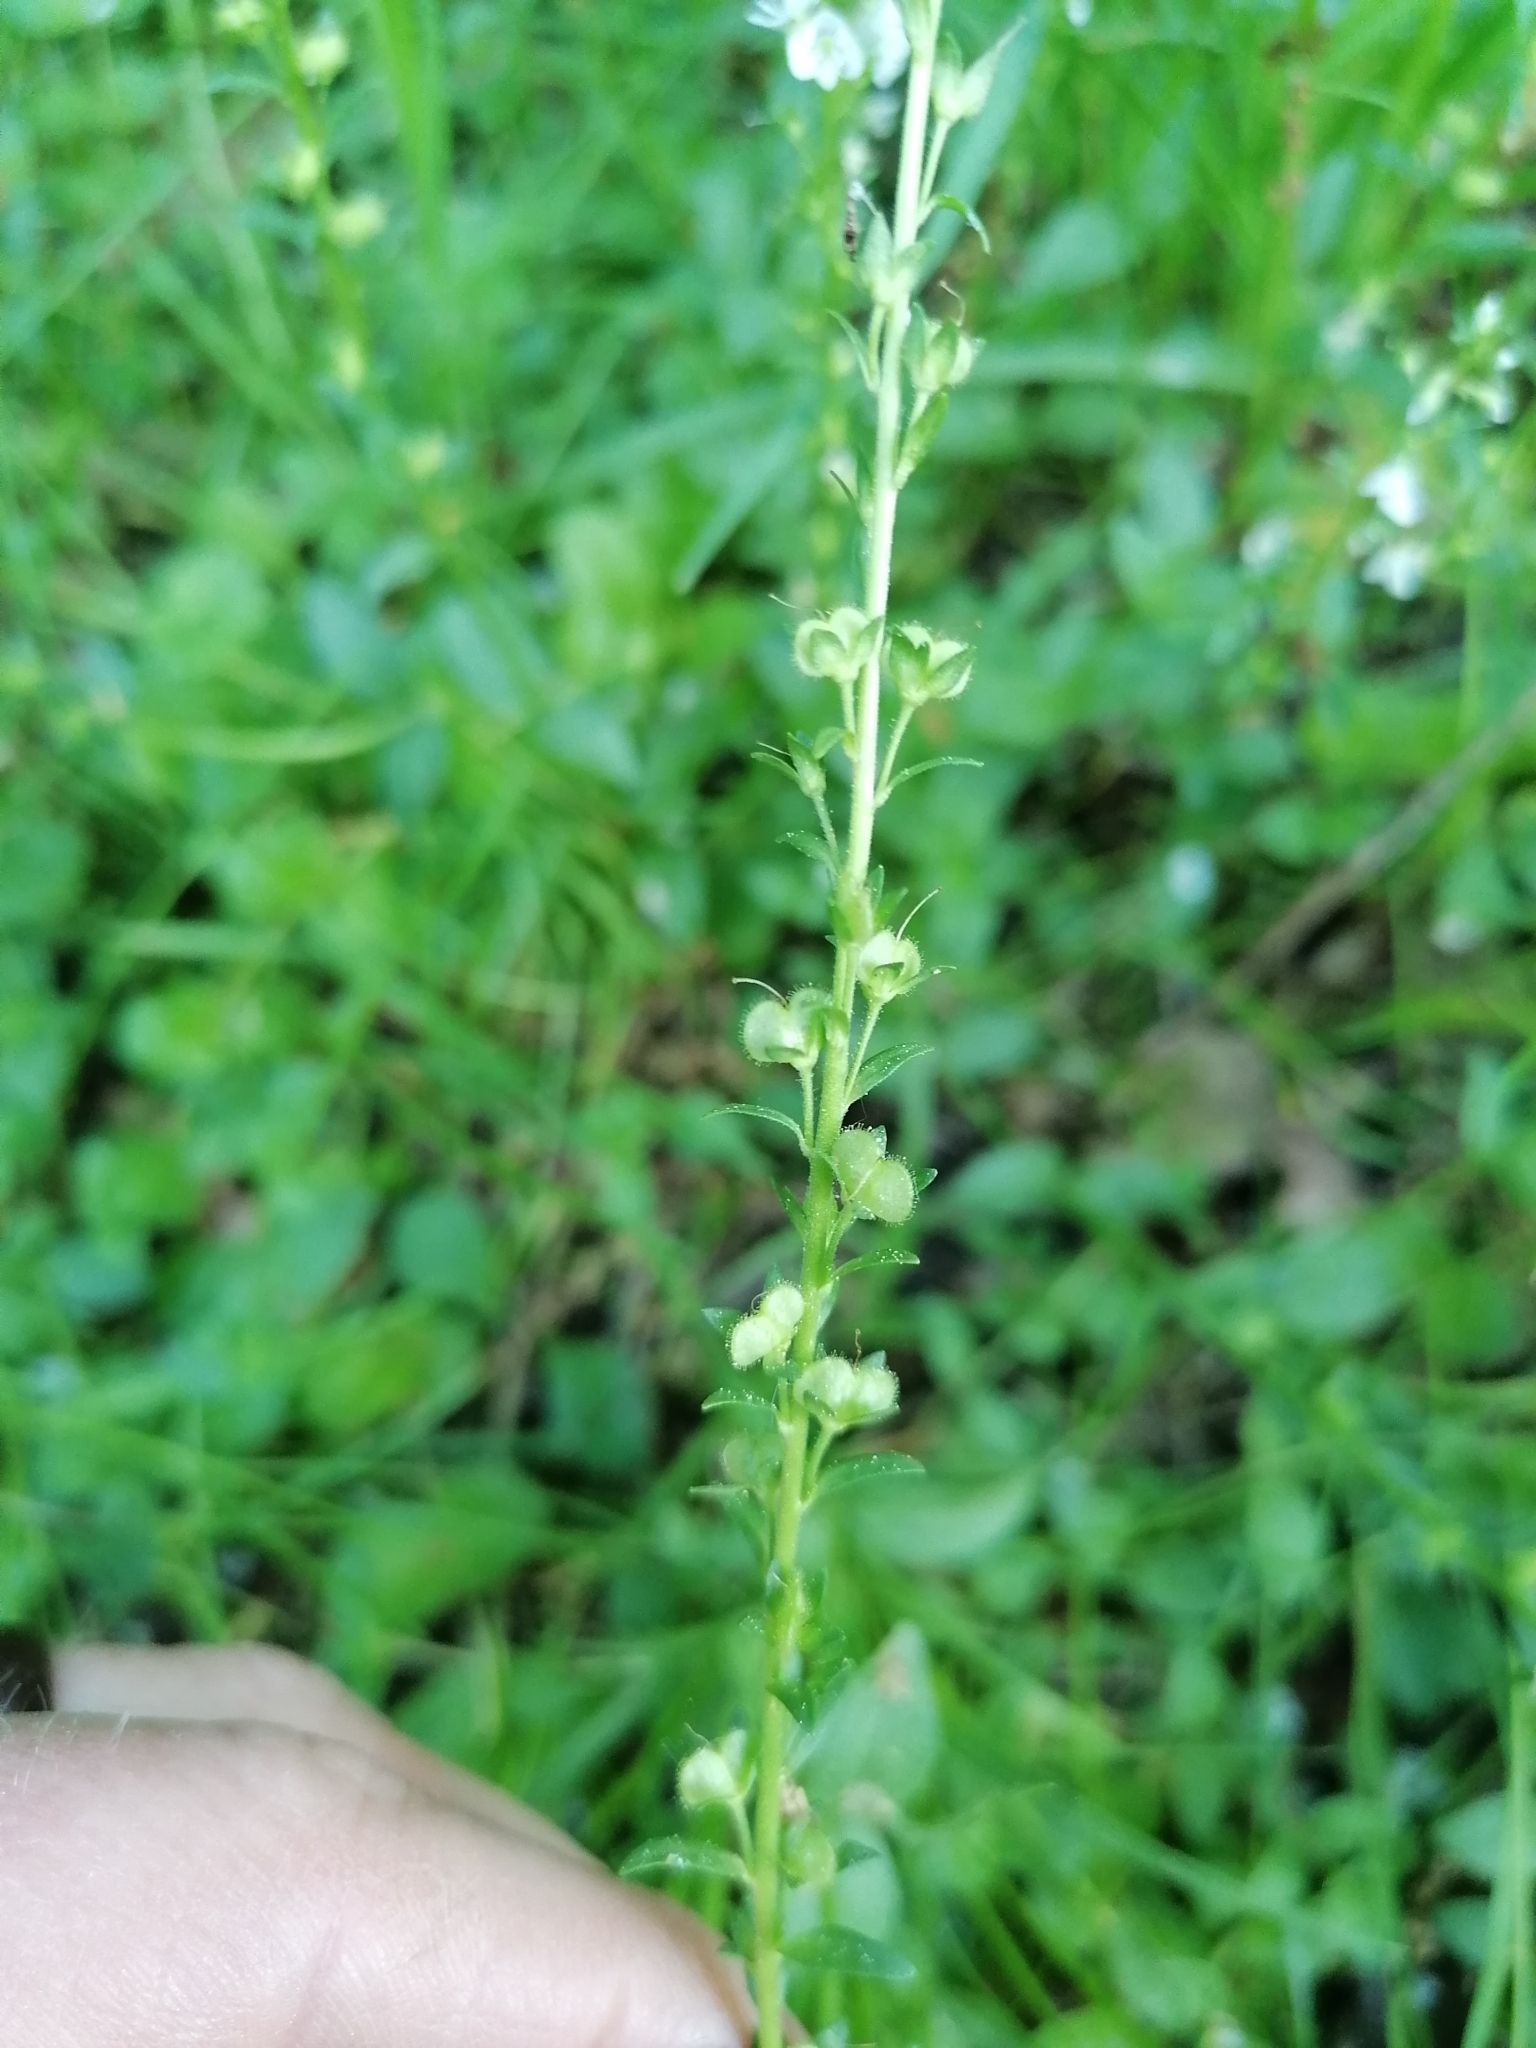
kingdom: Plantae
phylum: Tracheophyta
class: Magnoliopsida
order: Lamiales
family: Plantaginaceae
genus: Veronica
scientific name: Veronica serpyllifolia
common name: Thyme-leaved speedwell
